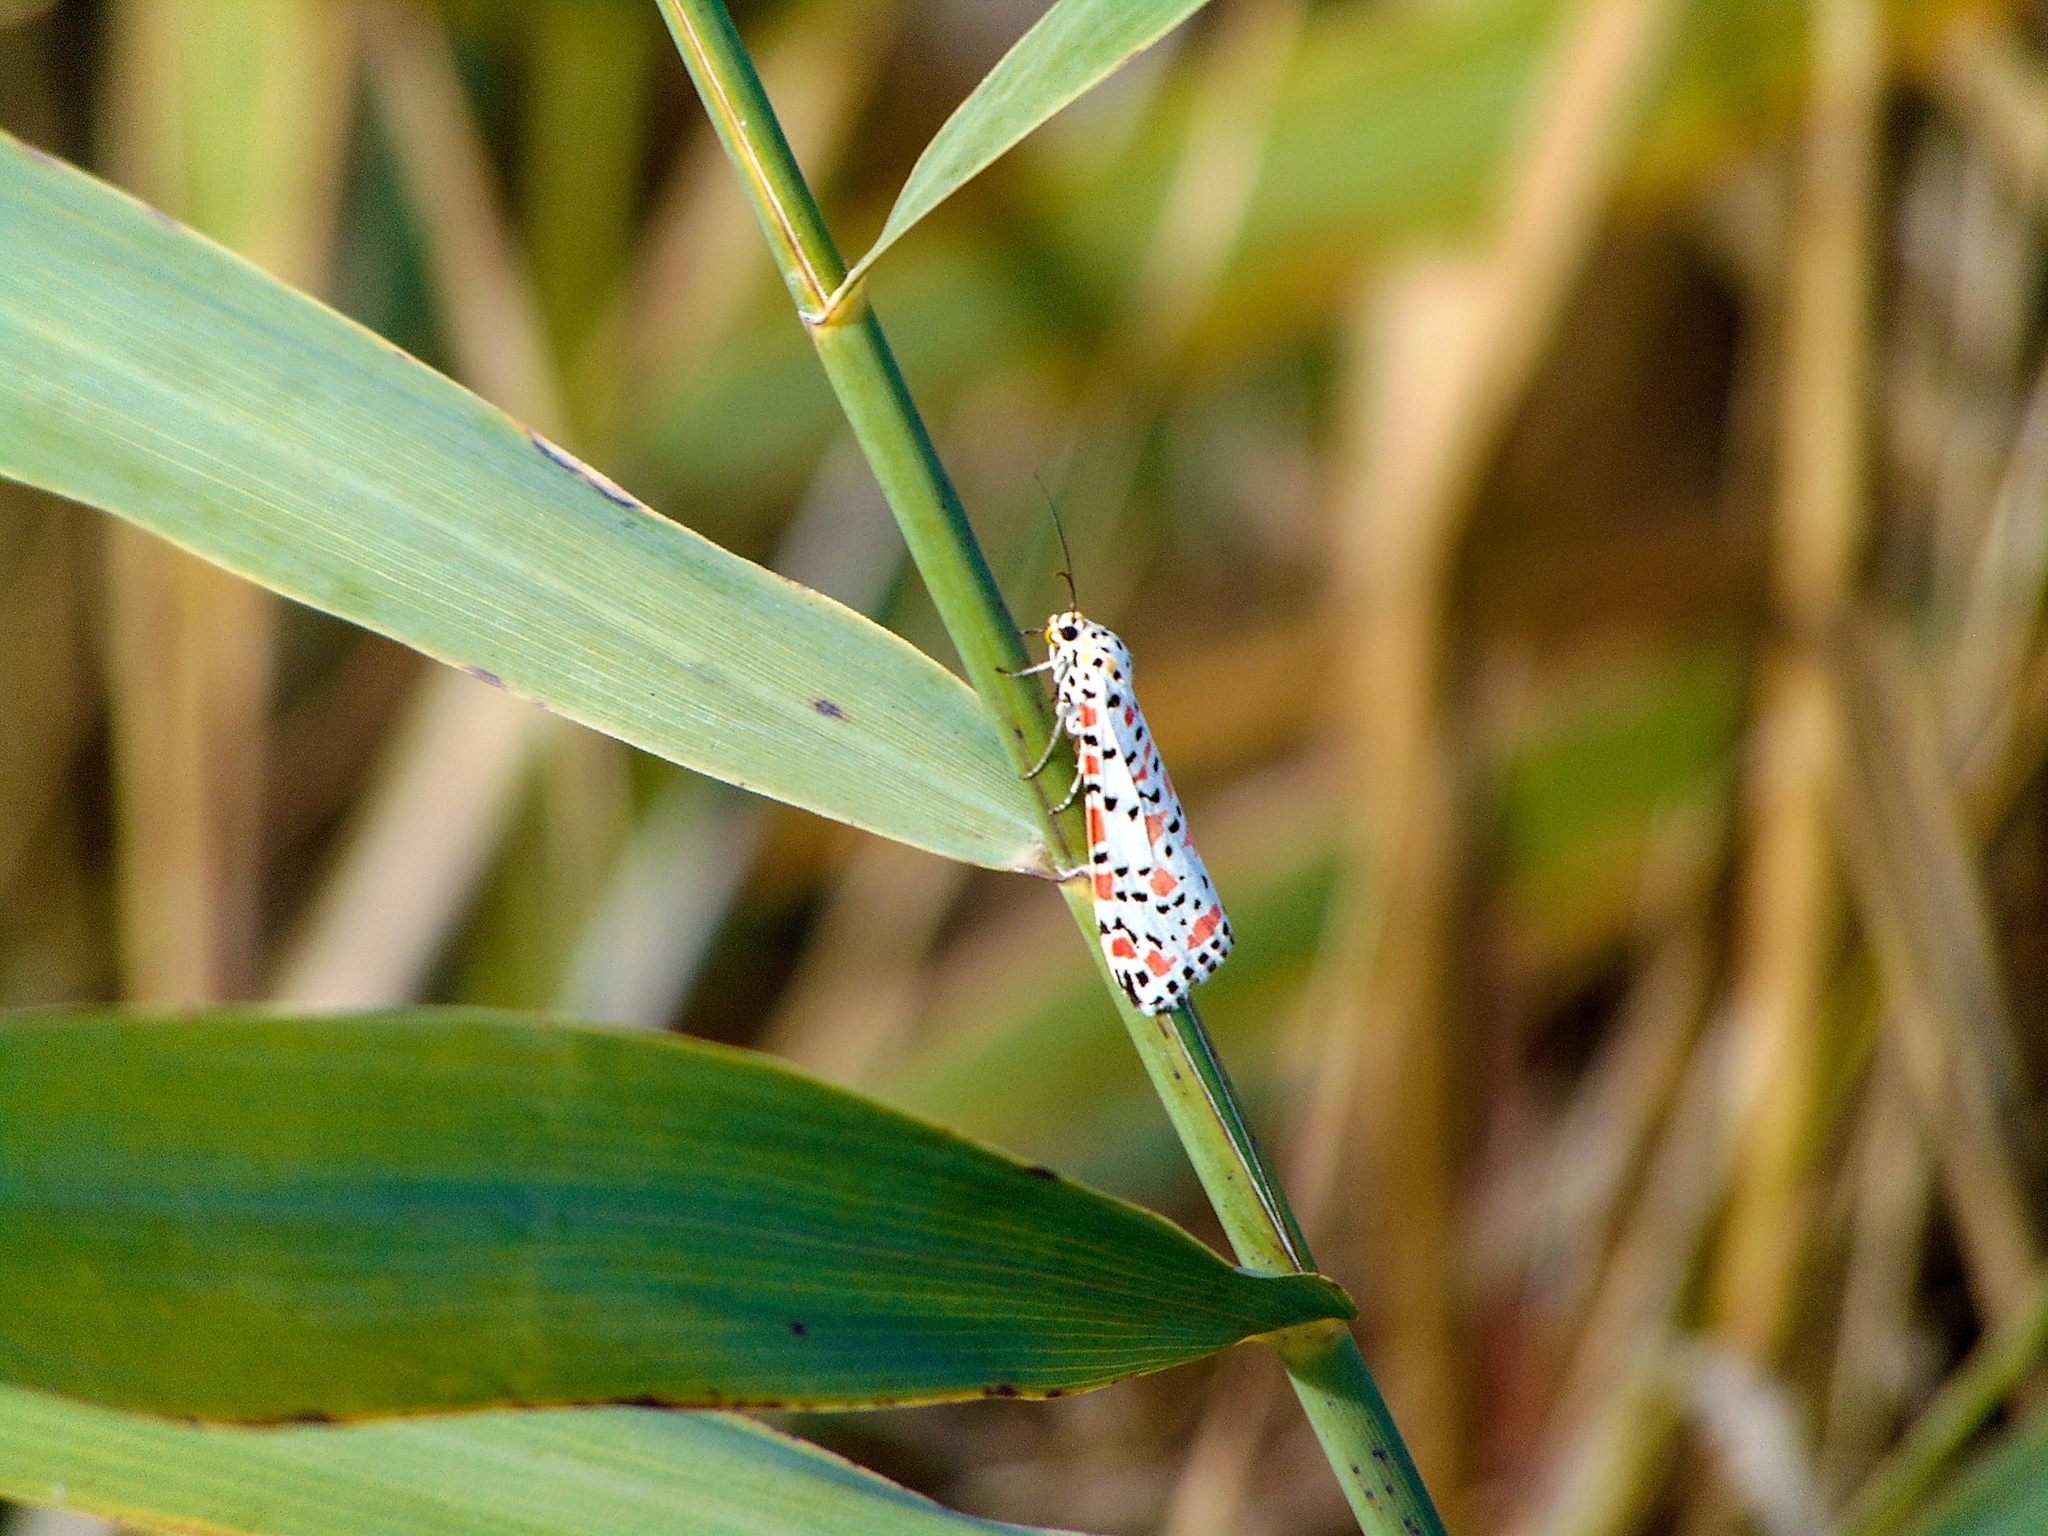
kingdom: Animalia
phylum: Arthropoda
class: Insecta
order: Lepidoptera
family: Erebidae
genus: Utetheisa
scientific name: Utetheisa pulchella
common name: Crimson speckled
